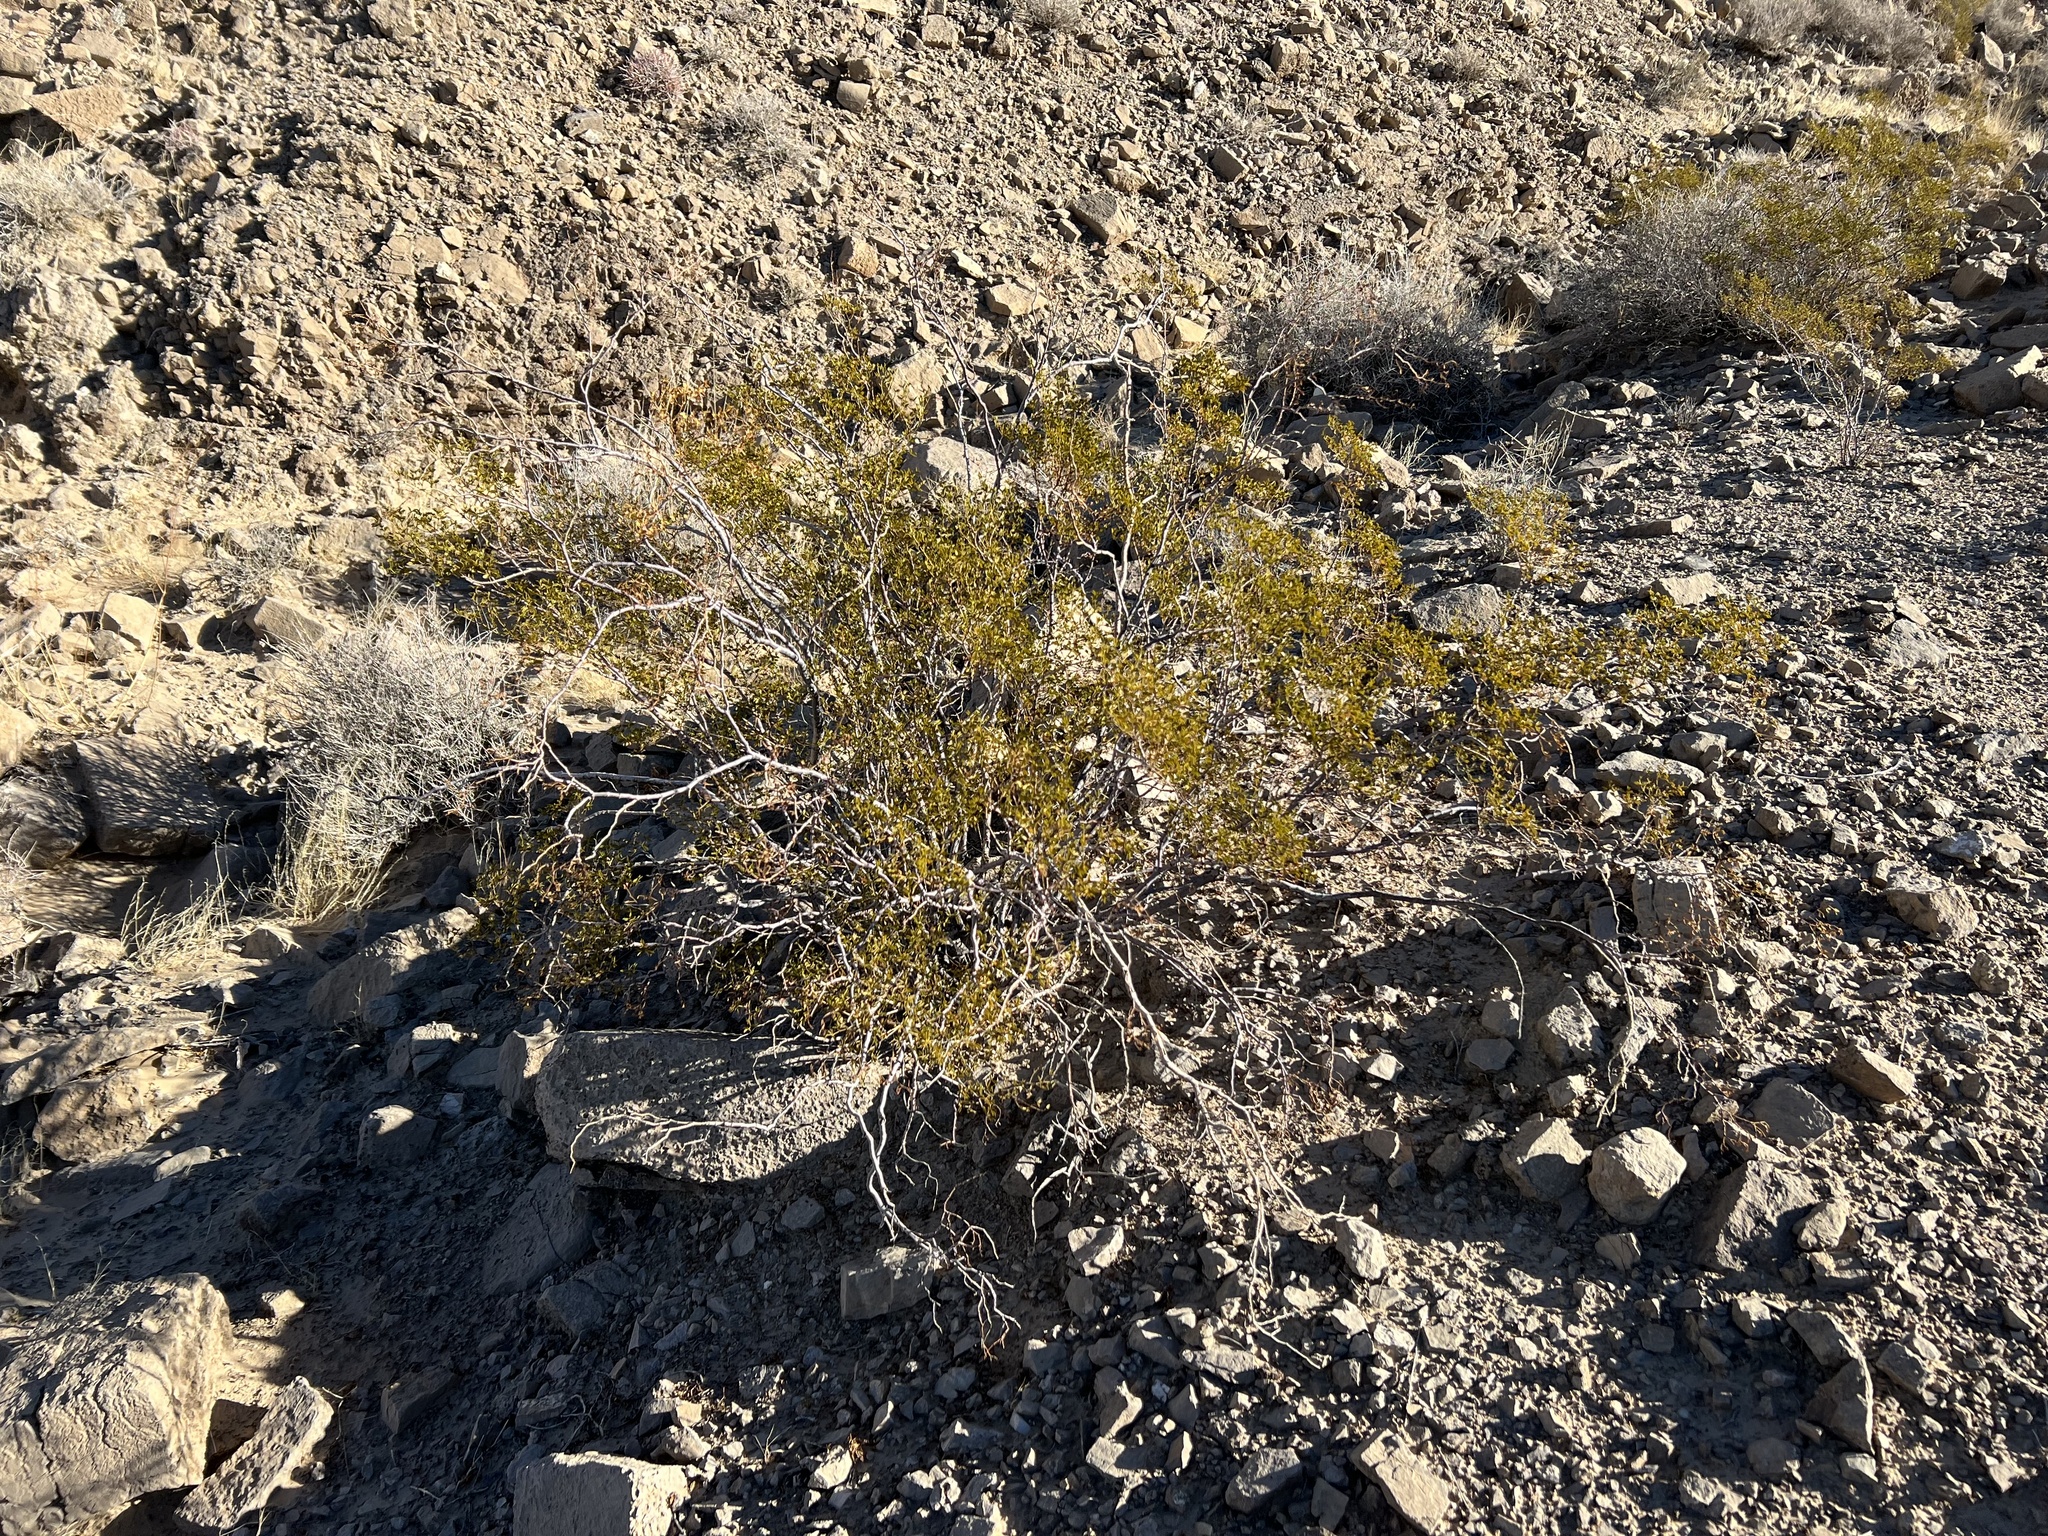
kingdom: Plantae
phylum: Tracheophyta
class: Magnoliopsida
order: Zygophyllales
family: Zygophyllaceae
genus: Larrea
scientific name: Larrea tridentata
